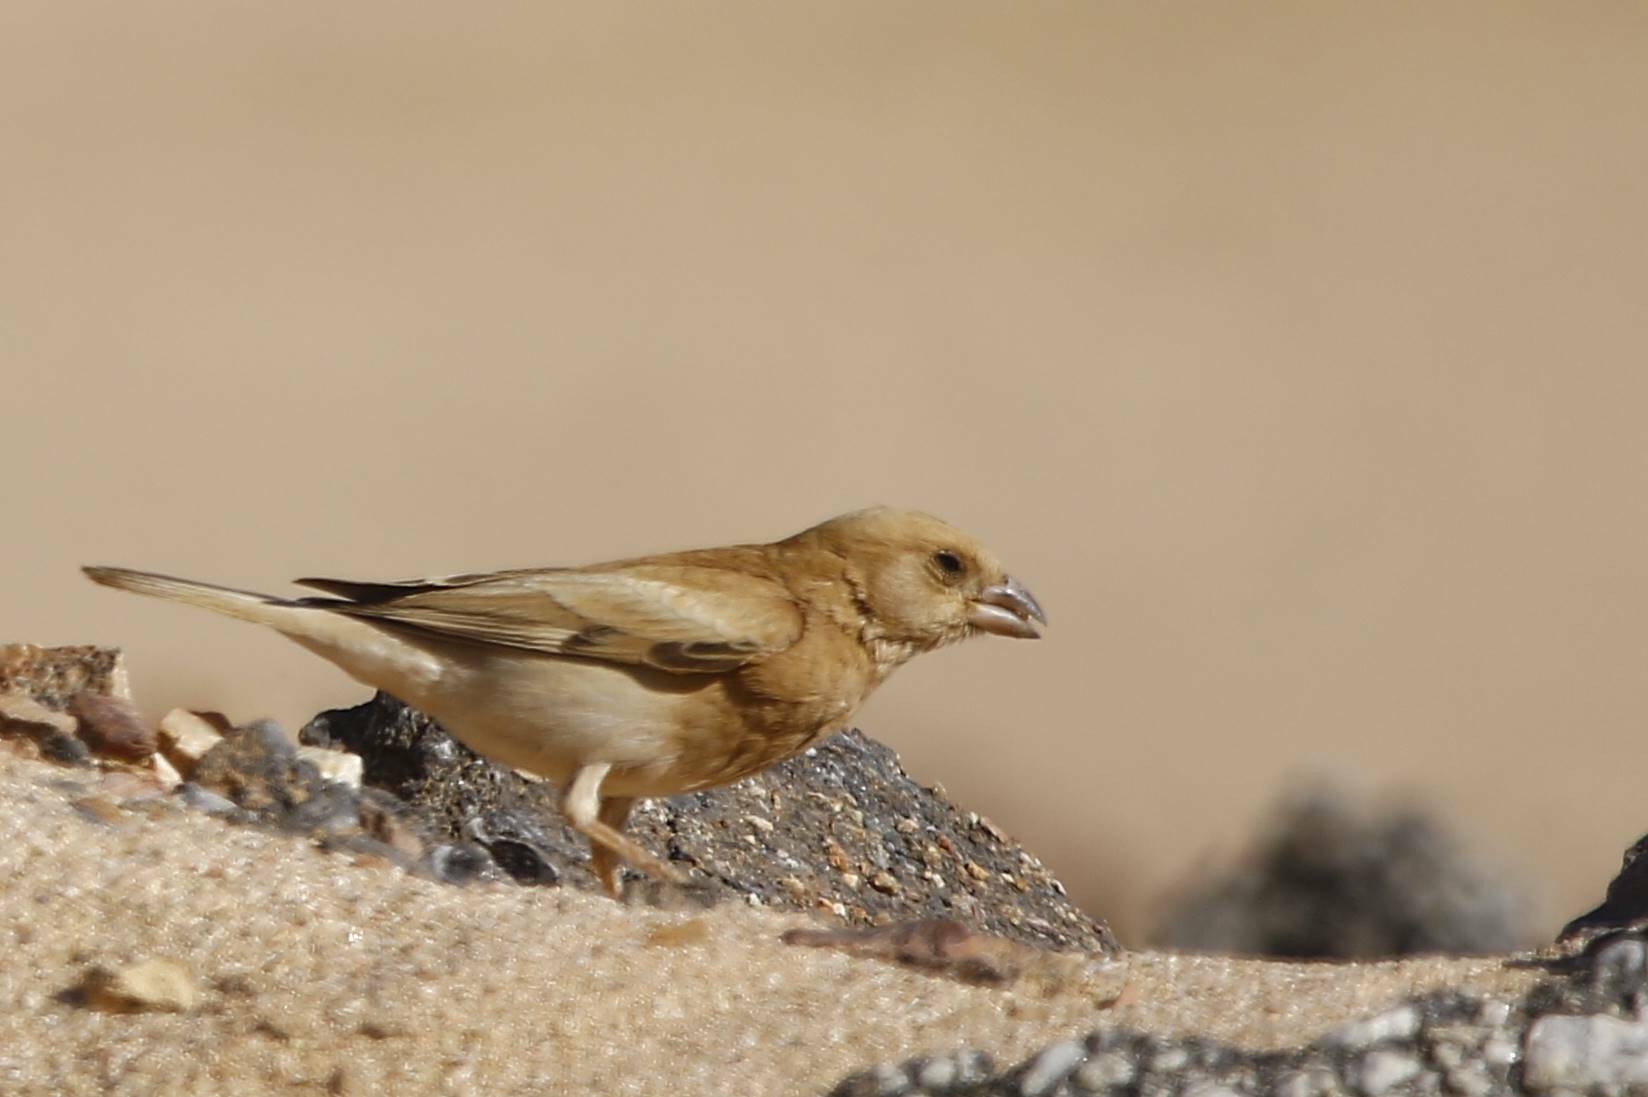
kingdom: Animalia
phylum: Chordata
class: Aves
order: Passeriformes
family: Passeridae
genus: Passer
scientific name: Passer simplex
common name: Desert sparrow
